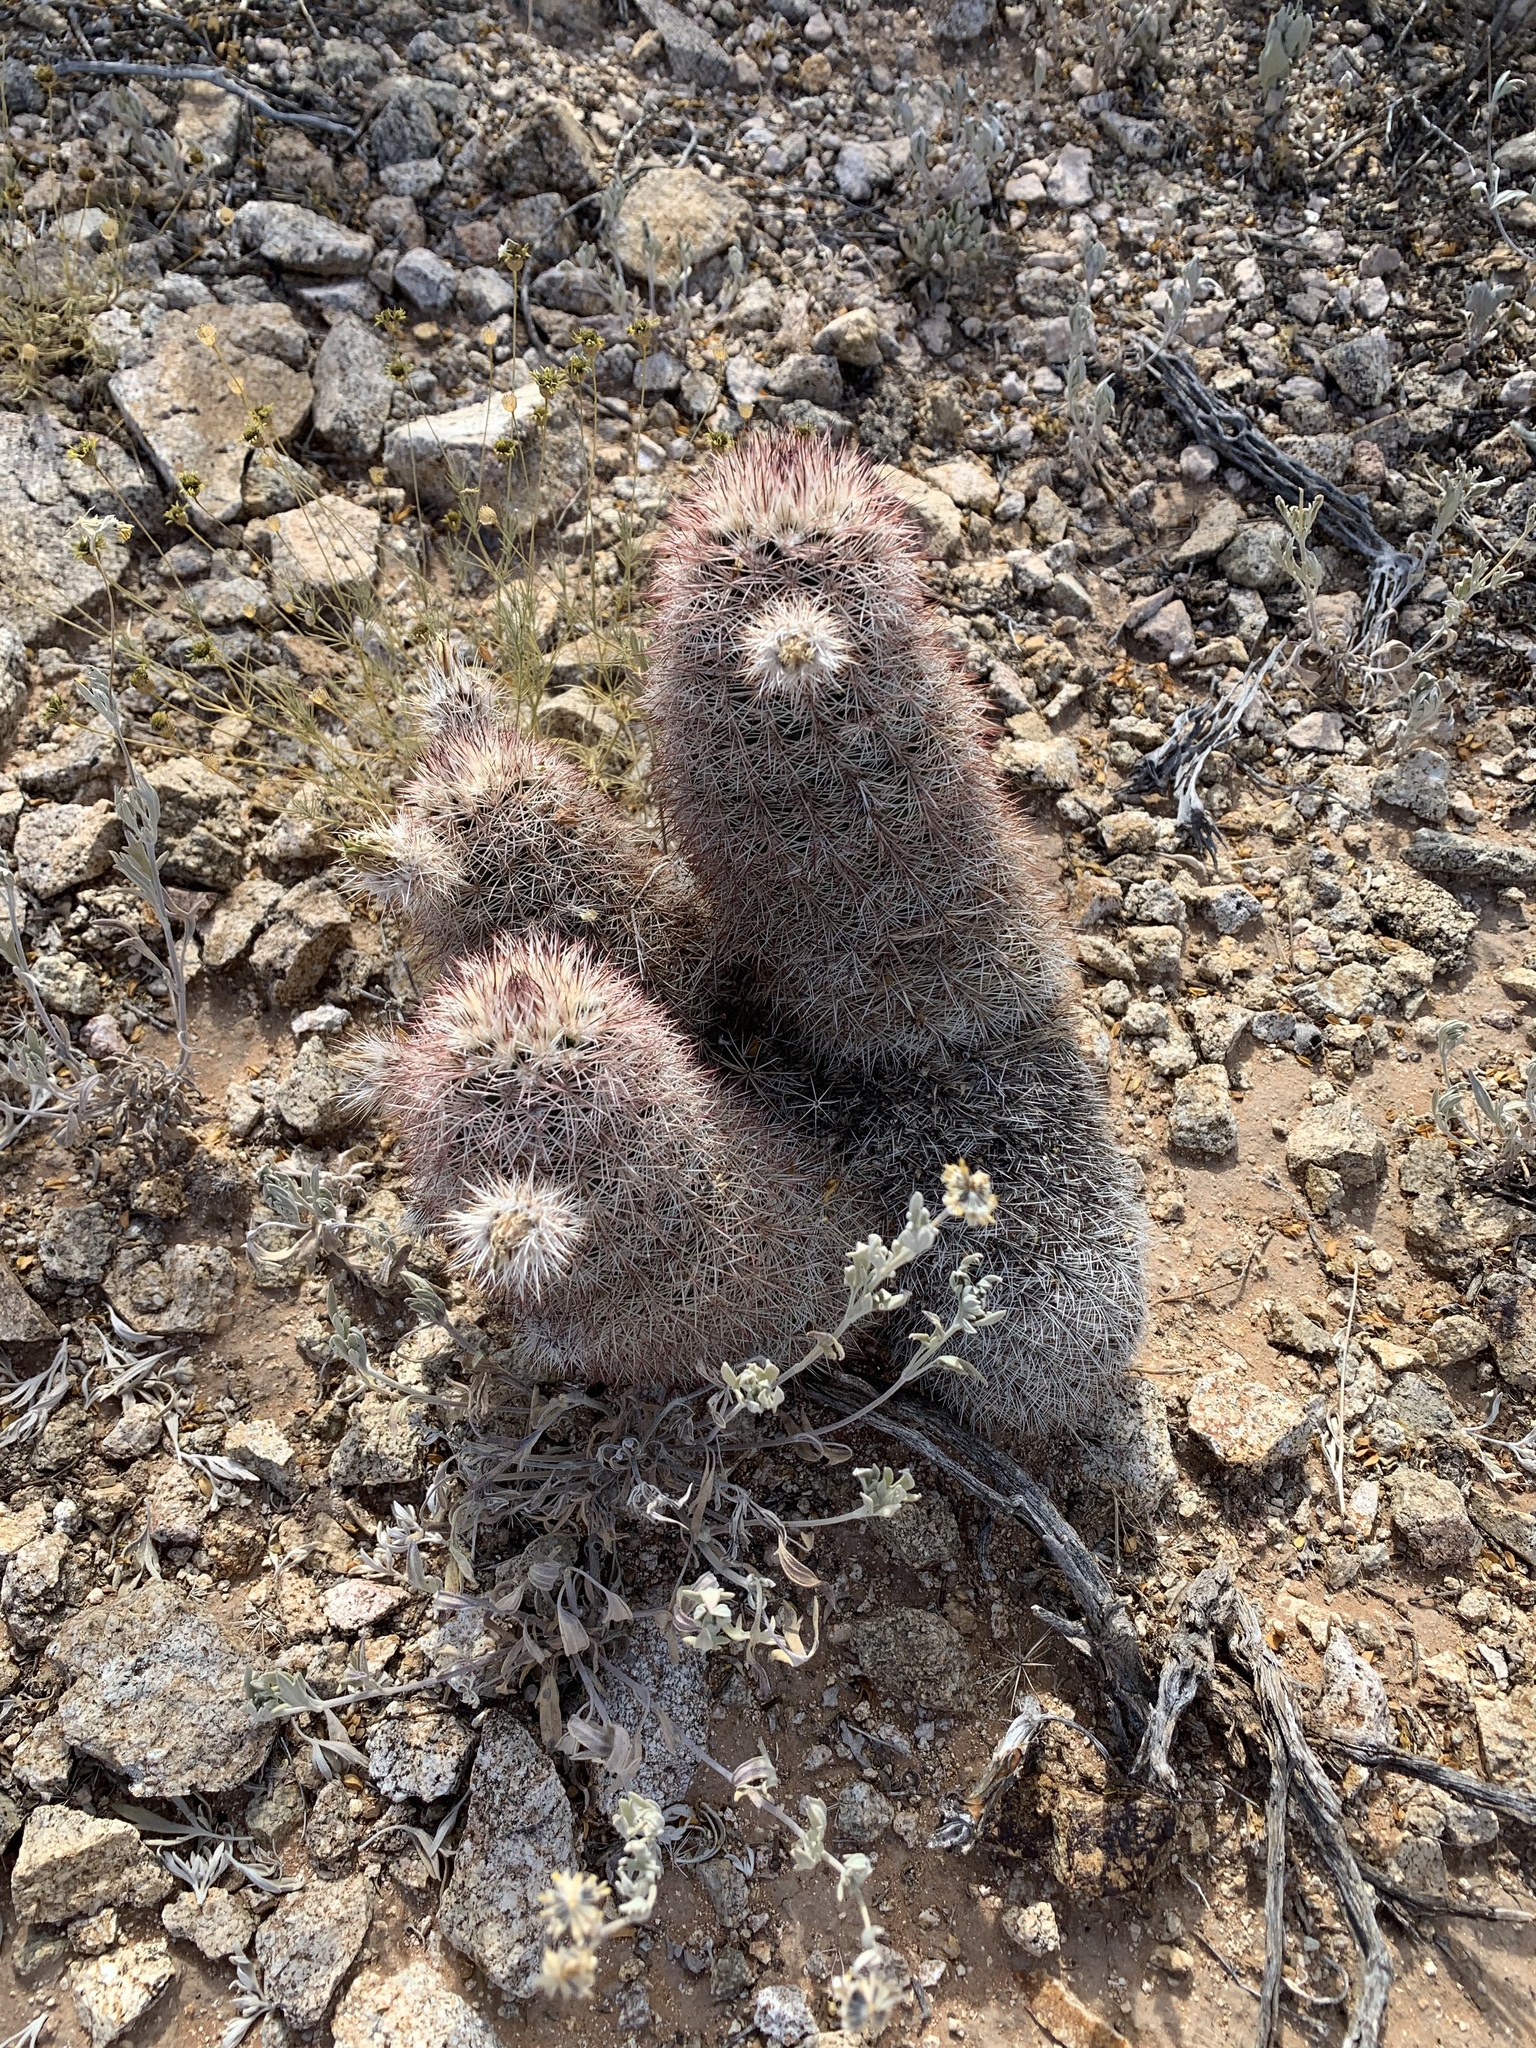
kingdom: Plantae
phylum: Tracheophyta
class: Magnoliopsida
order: Caryophyllales
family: Cactaceae
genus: Echinocereus
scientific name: Echinocereus dasyacanthus
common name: Spiny hedgehog cactus
